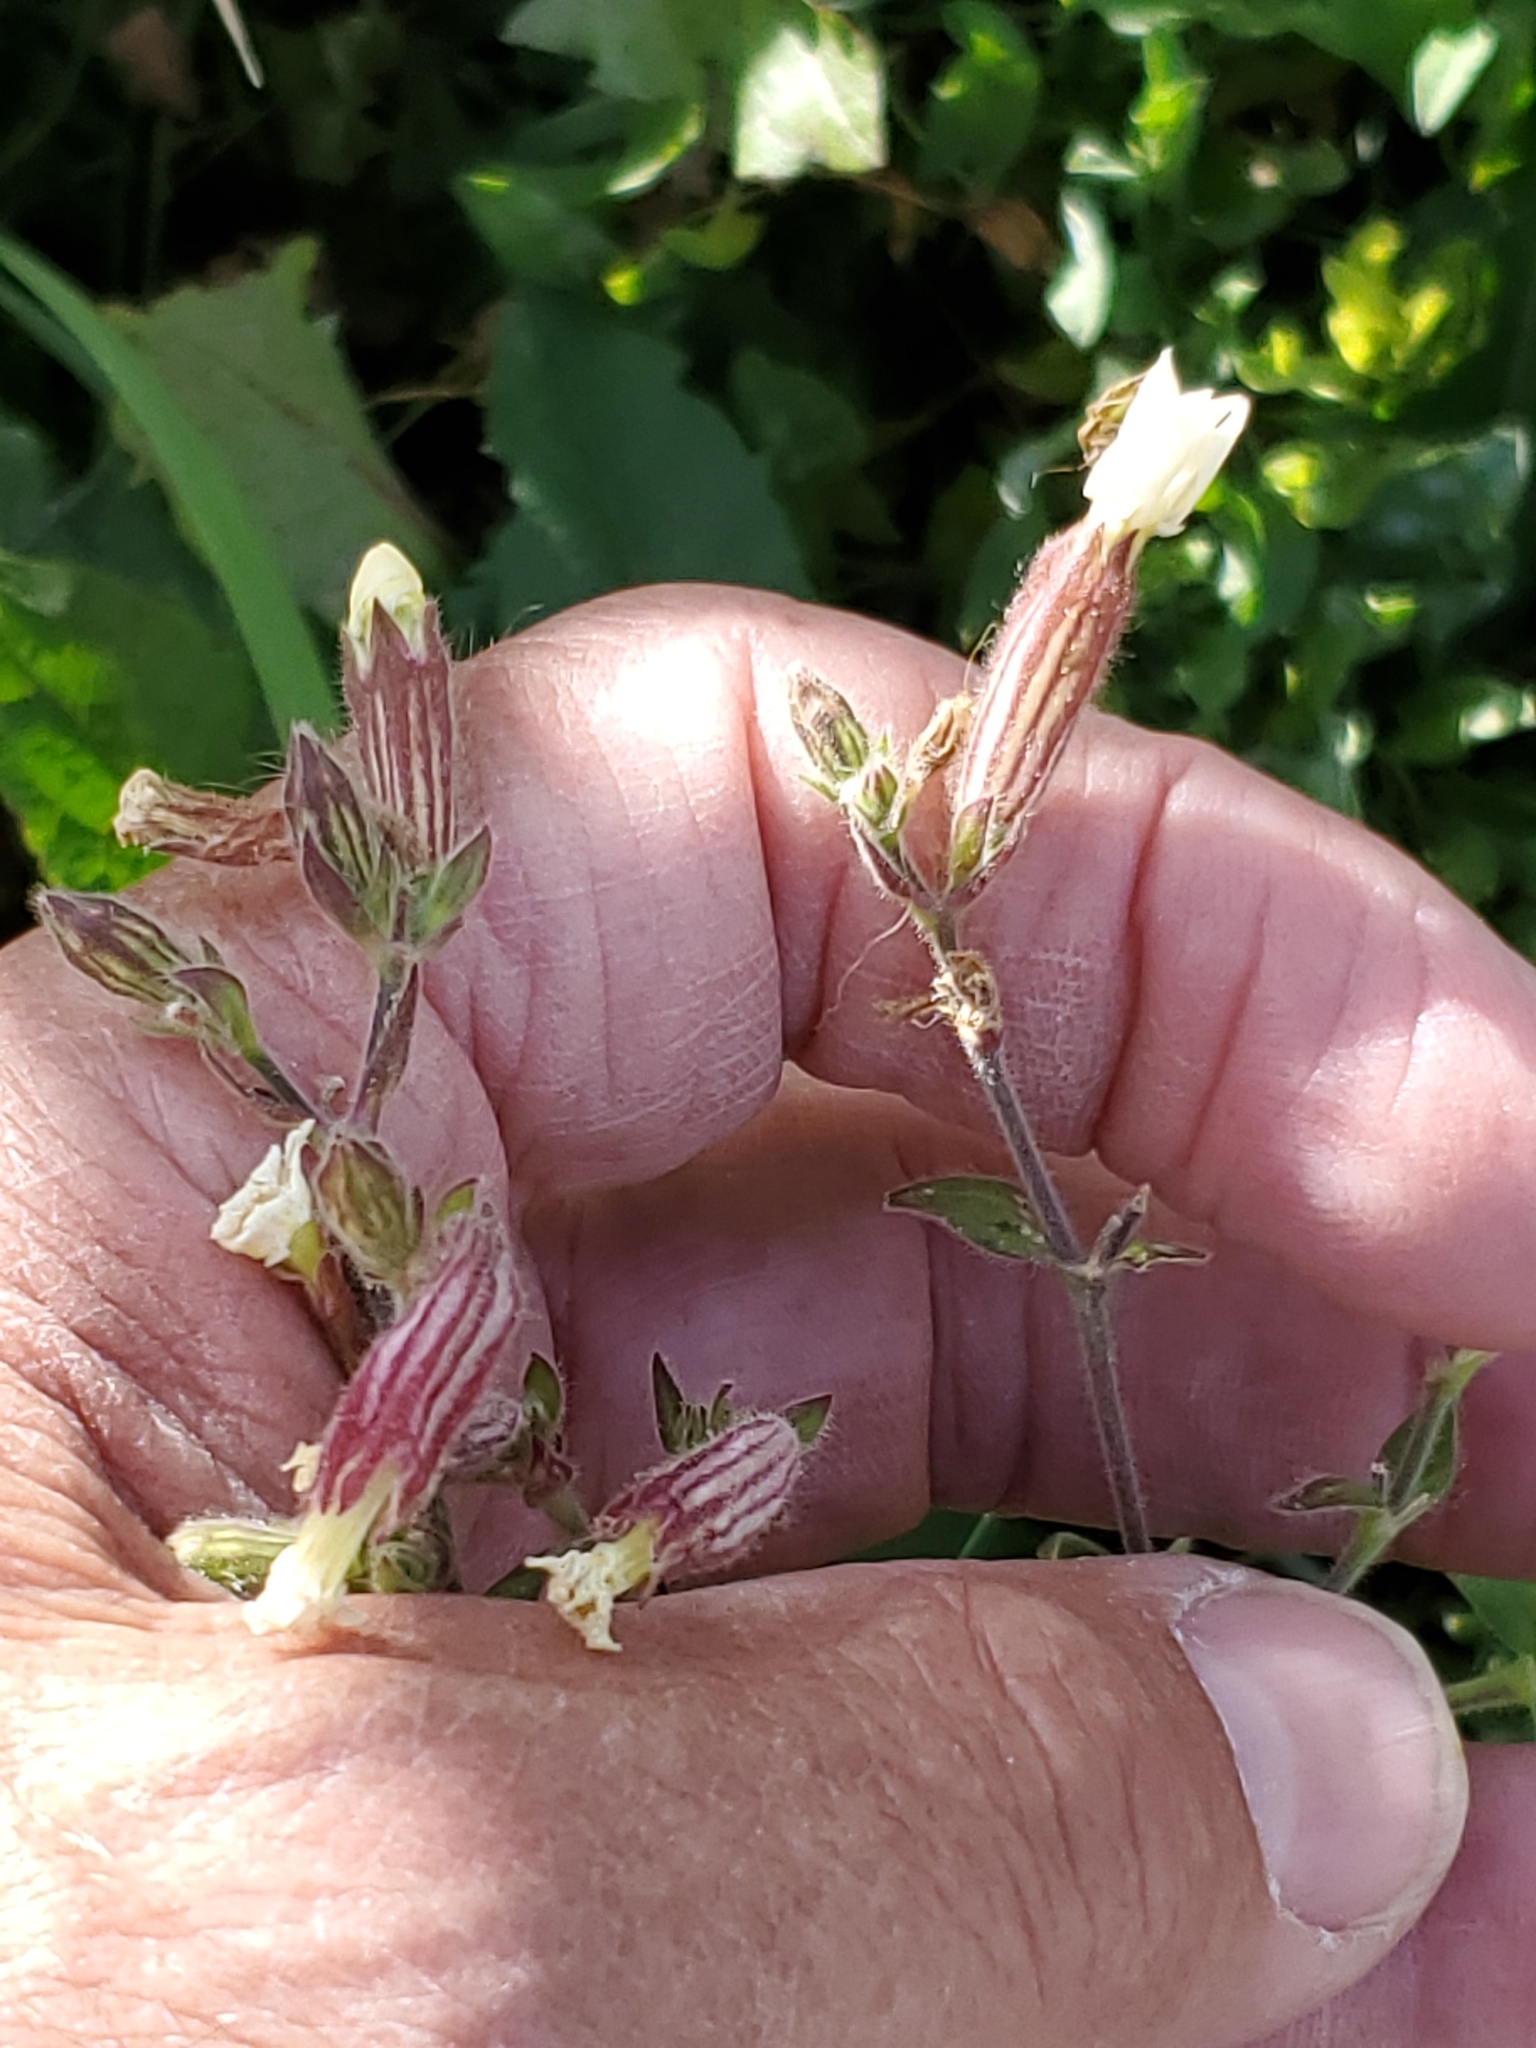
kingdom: Plantae
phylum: Tracheophyta
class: Magnoliopsida
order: Caryophyllales
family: Caryophyllaceae
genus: Silene
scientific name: Silene latifolia
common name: White campion
